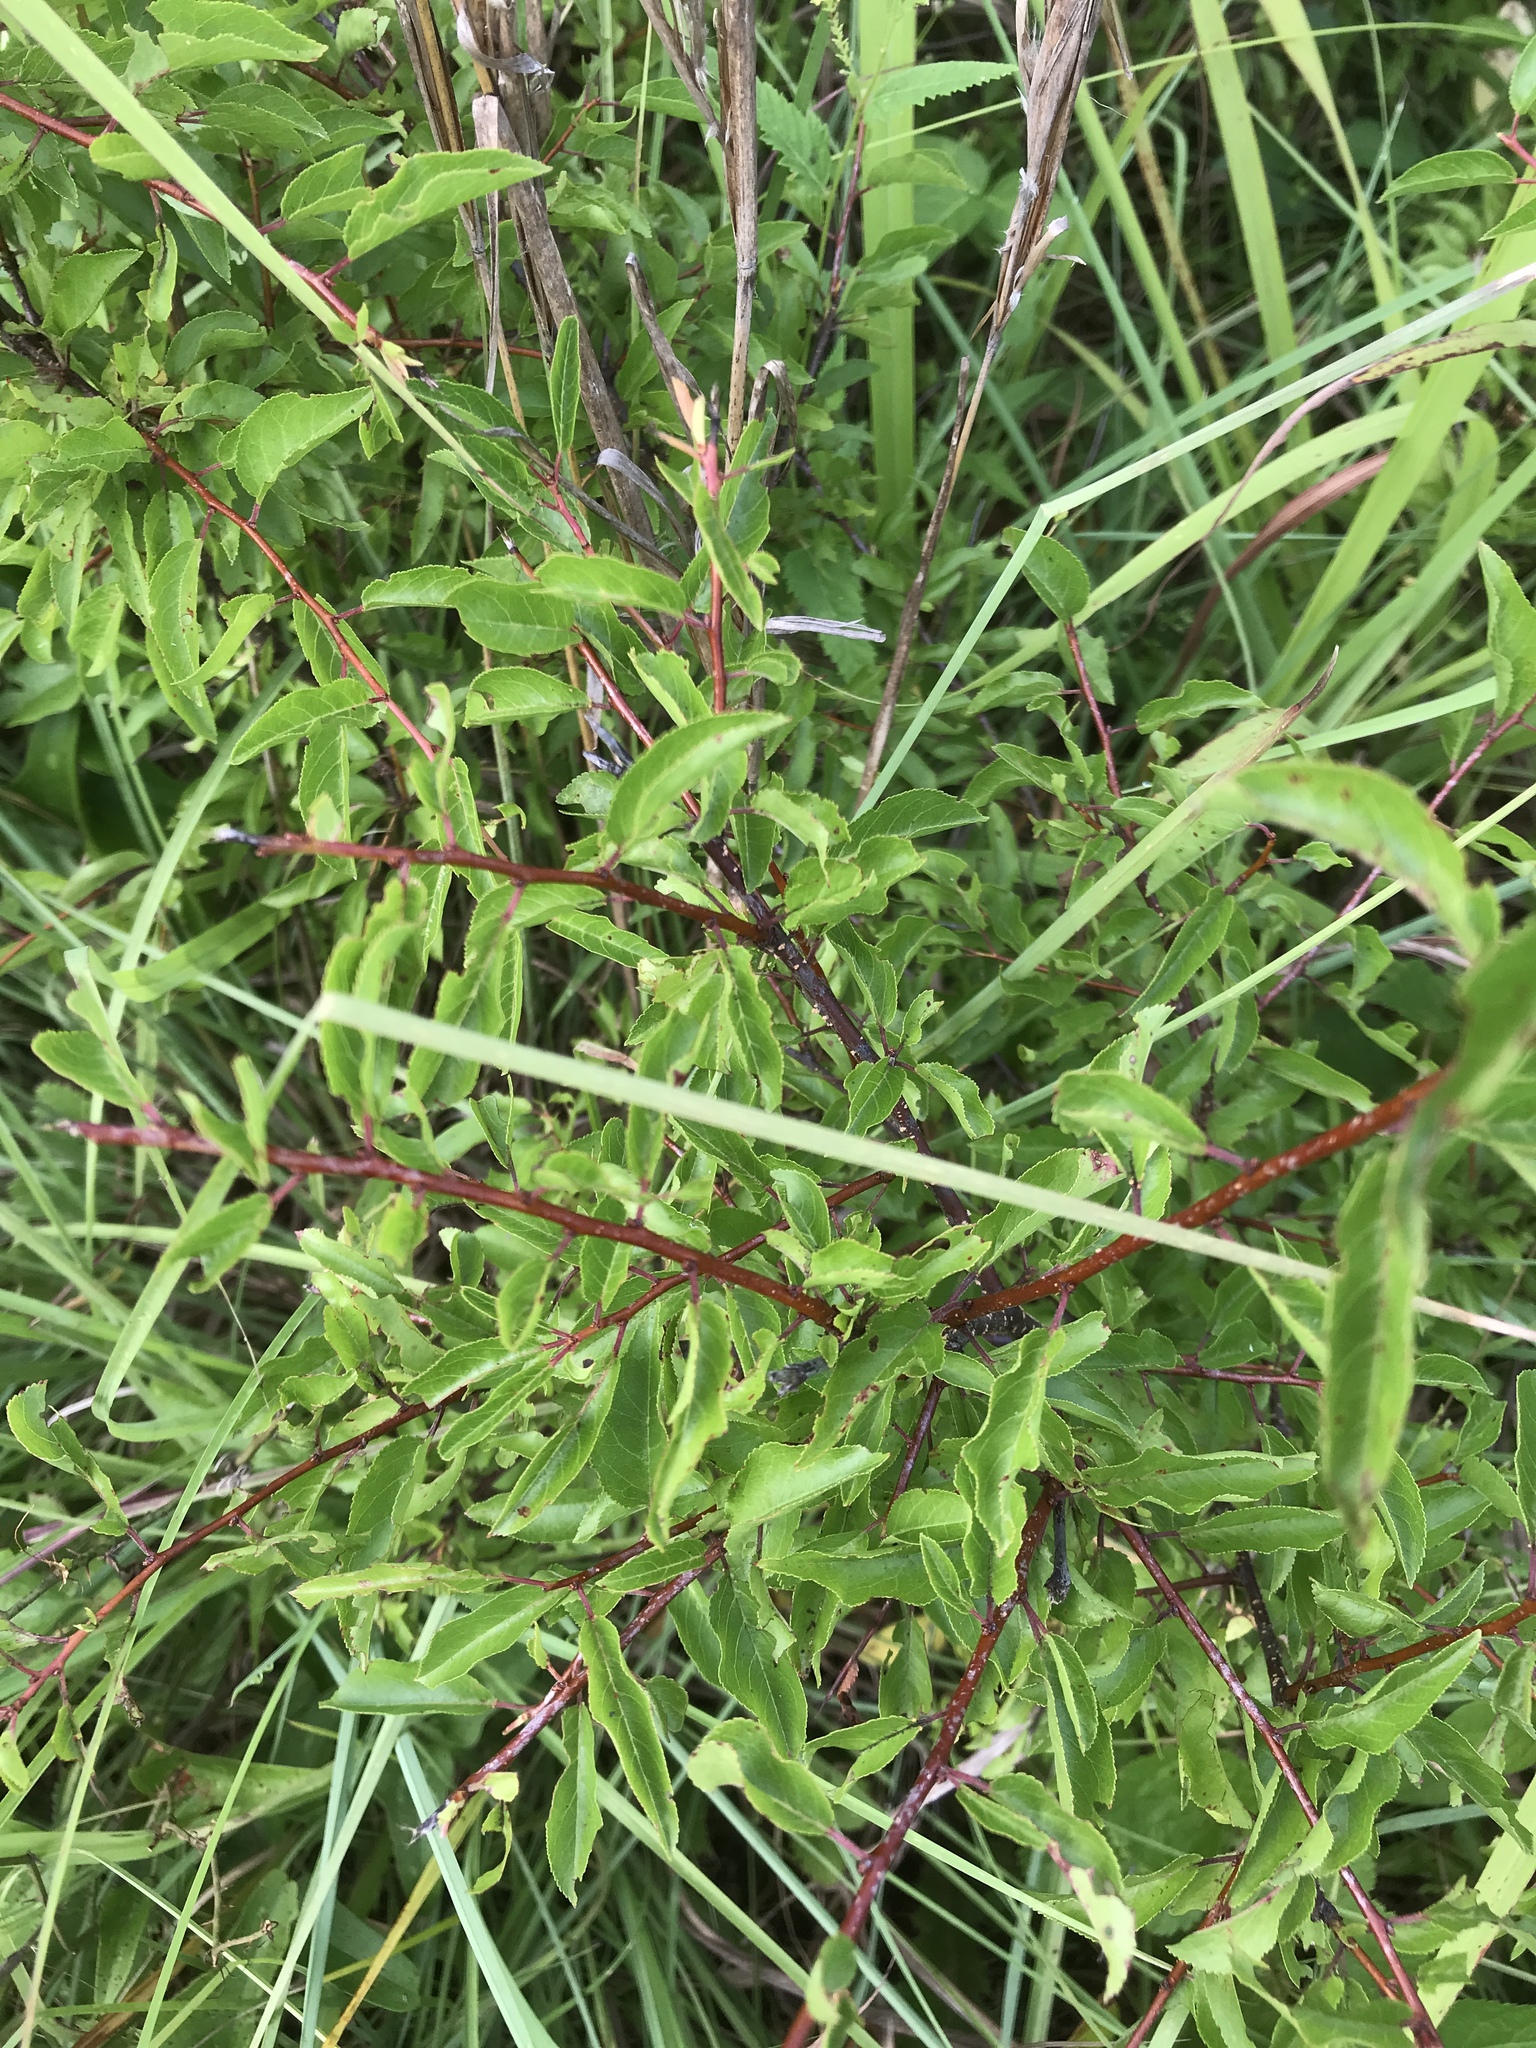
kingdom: Plantae
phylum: Tracheophyta
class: Magnoliopsida
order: Rosales
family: Rosaceae
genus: Prunus
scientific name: Prunus angustifolia
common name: Cherokee plum
